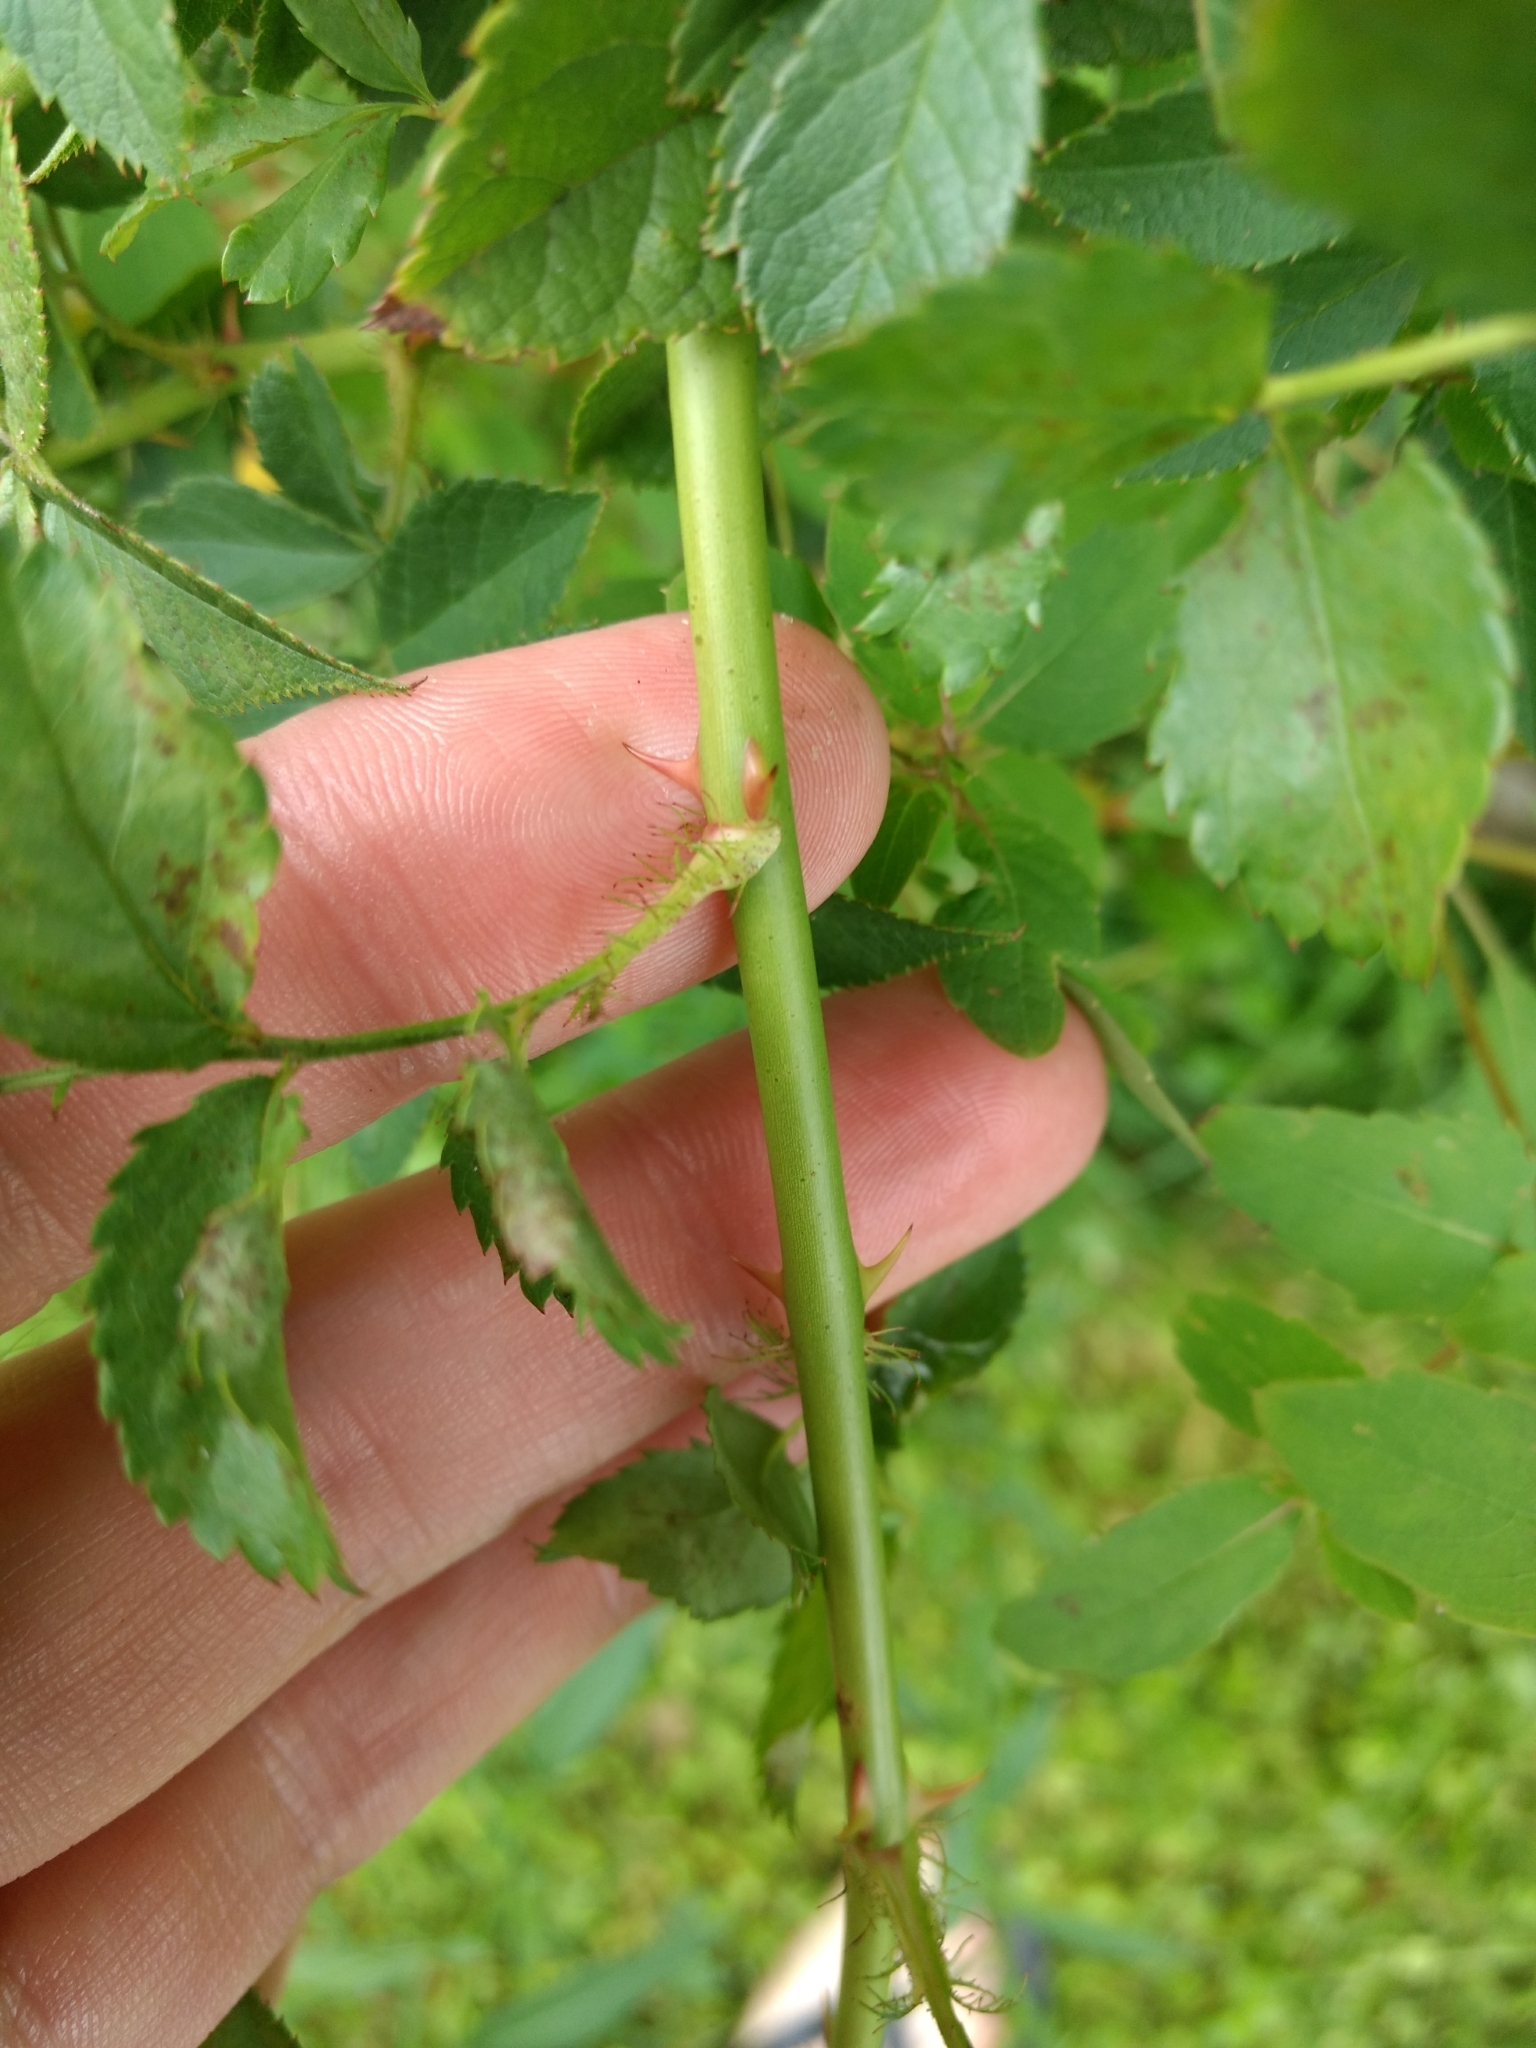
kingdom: Plantae
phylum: Tracheophyta
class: Magnoliopsida
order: Rosales
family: Rosaceae
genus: Rosa
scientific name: Rosa multiflora
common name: Multiflora rose
